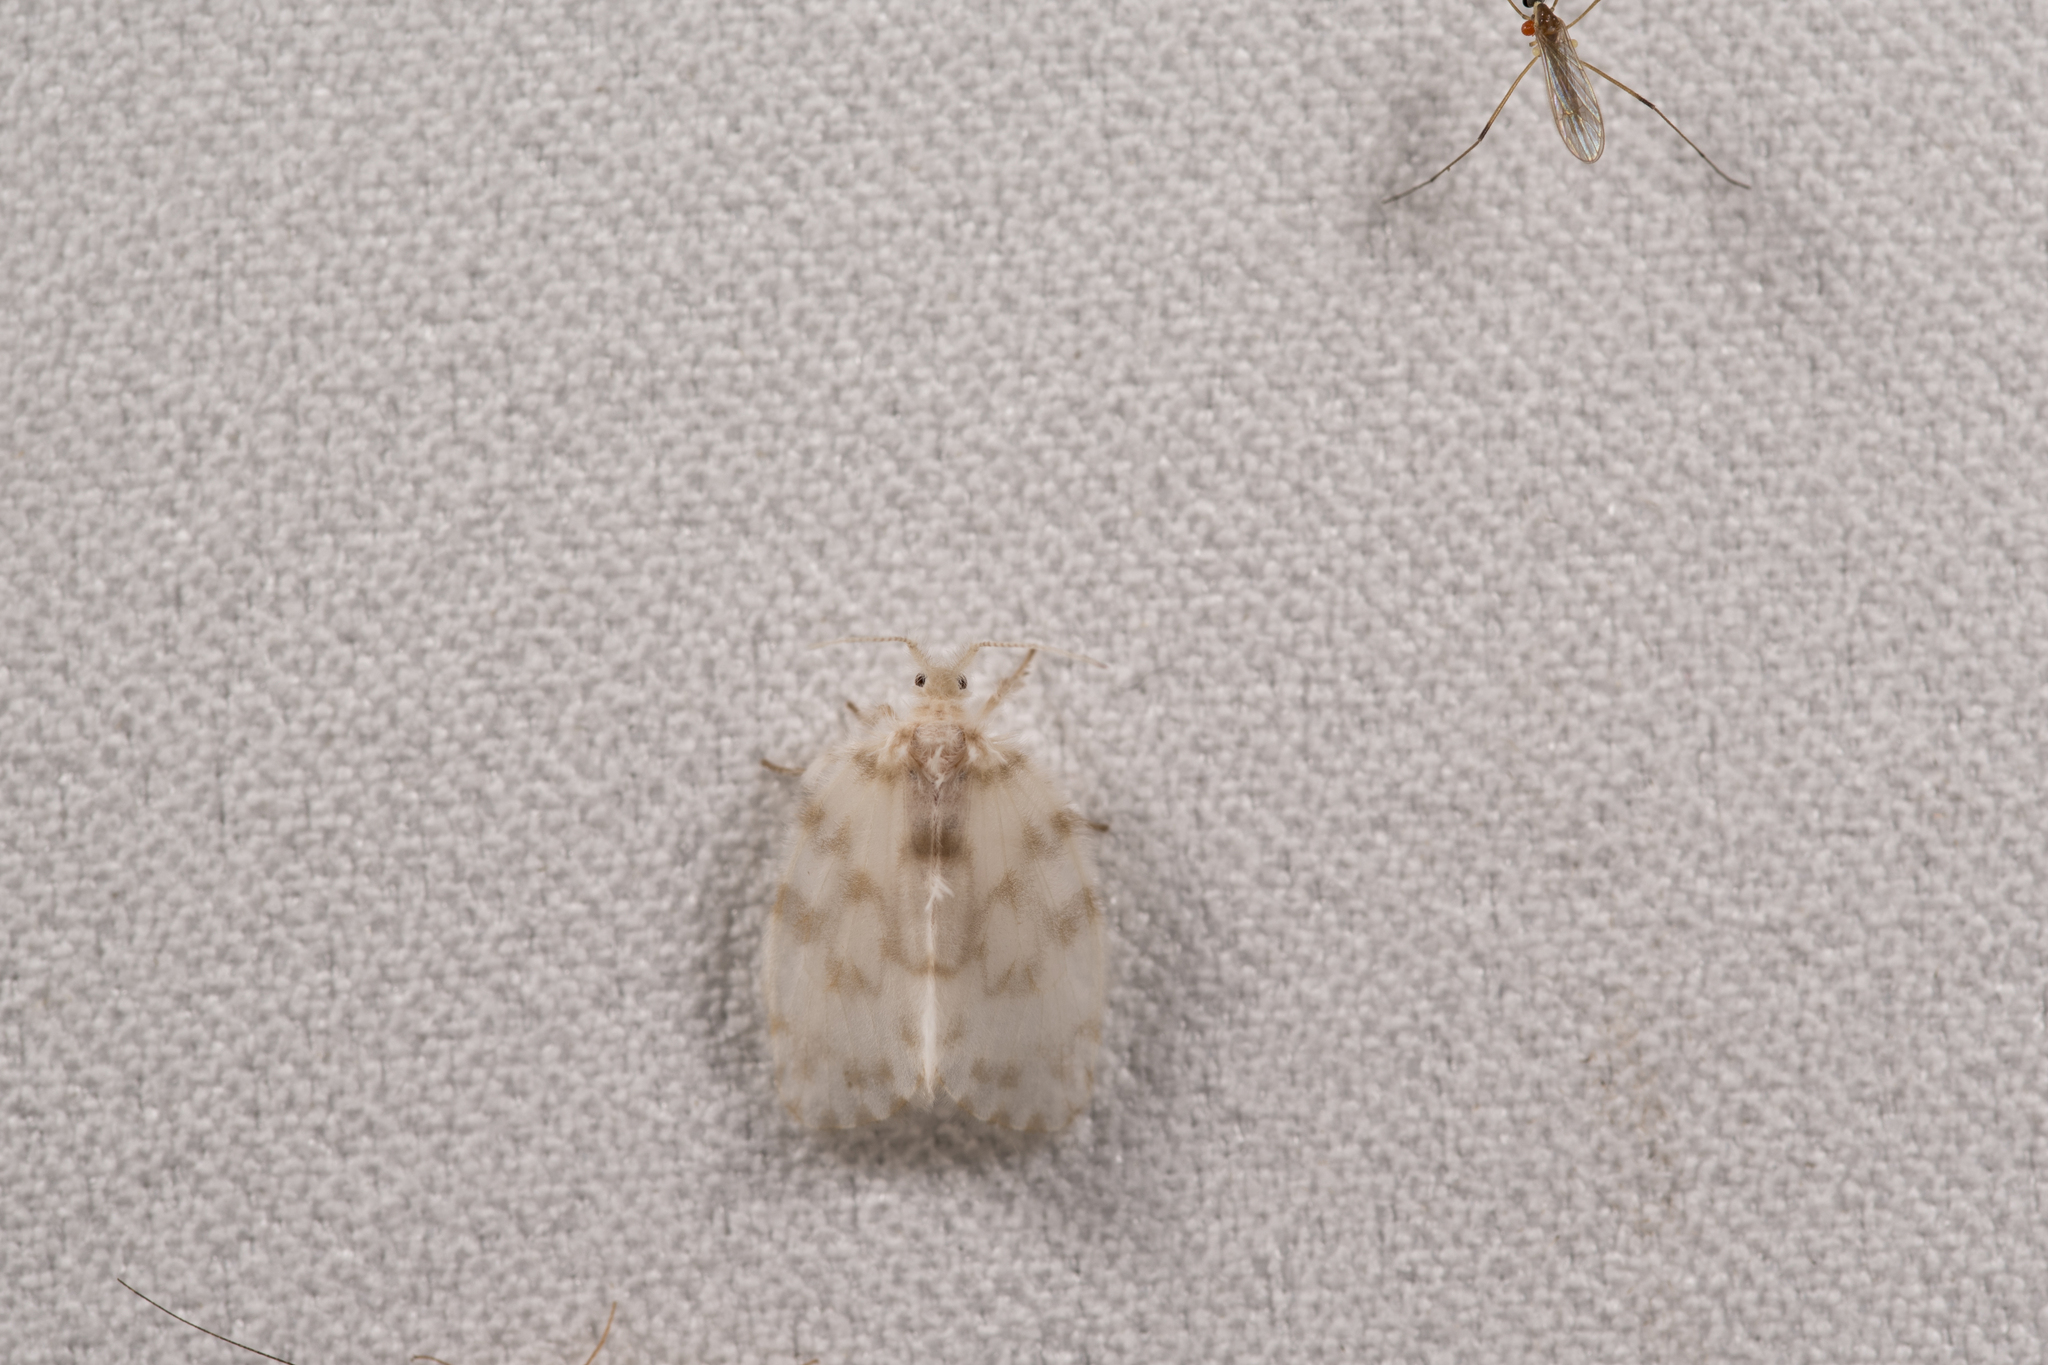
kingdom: Animalia
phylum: Arthropoda
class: Insecta
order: Lepidoptera
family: Erebidae
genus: Chamaita
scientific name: Chamaita hirta
